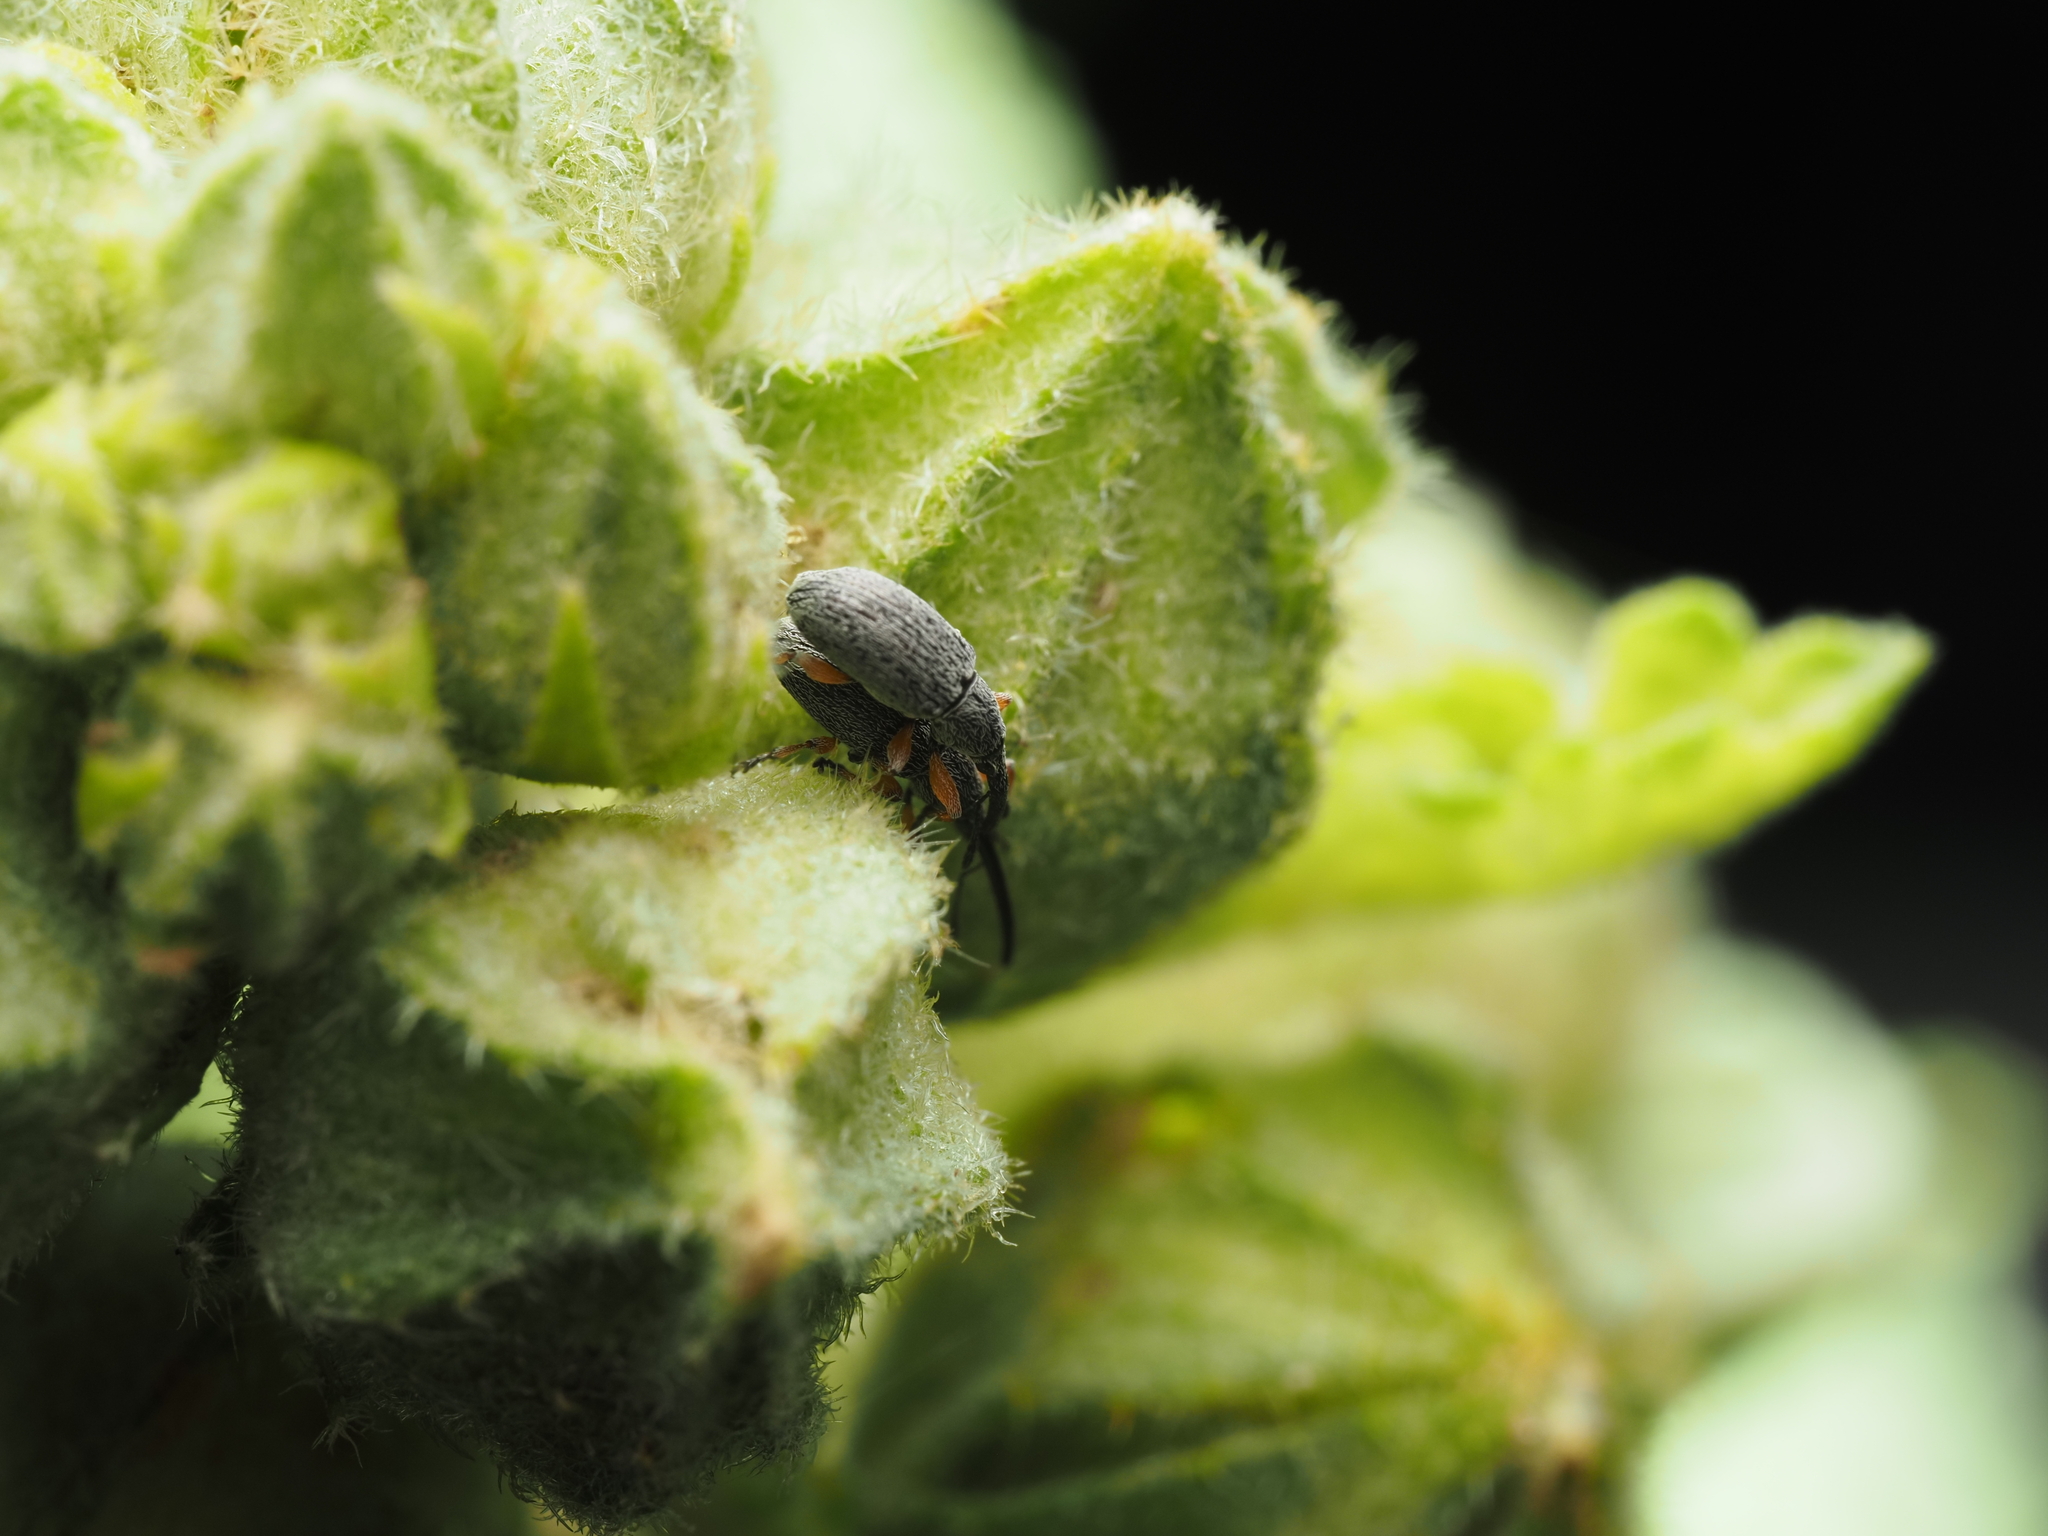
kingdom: Animalia
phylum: Arthropoda
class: Insecta
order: Coleoptera
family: Brentidae
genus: Rhopalapion
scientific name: Rhopalapion longirostre
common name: Hollyhock weevil
